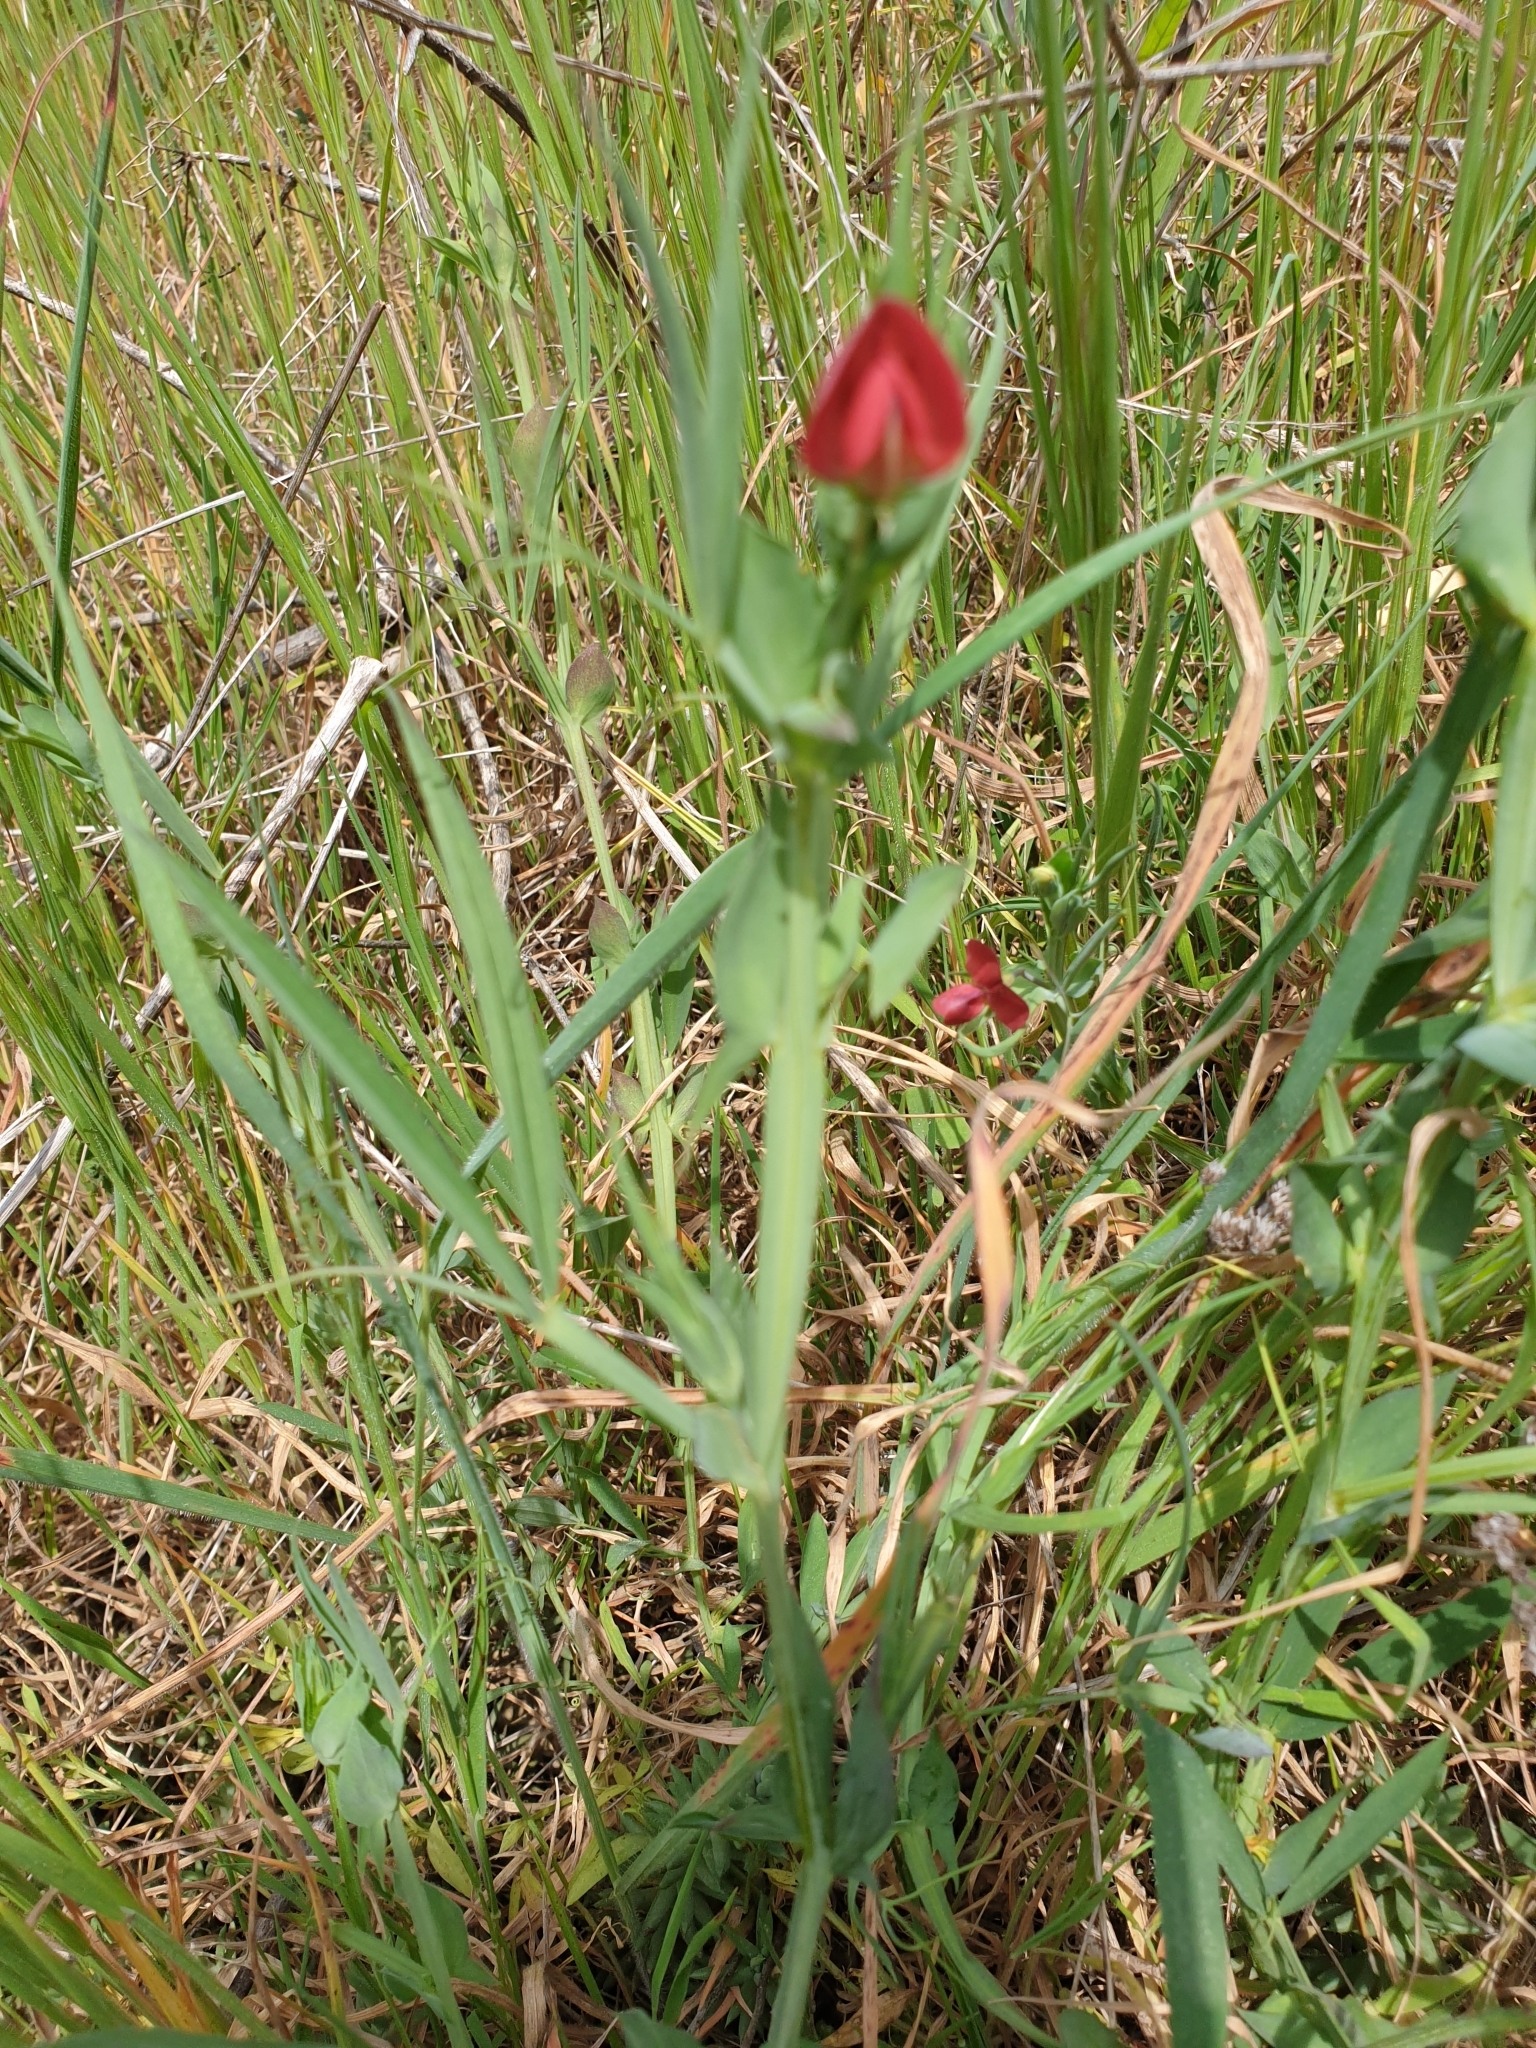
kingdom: Plantae
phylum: Tracheophyta
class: Magnoliopsida
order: Fabales
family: Fabaceae
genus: Lathyrus
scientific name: Lathyrus cicera
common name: Red vetchling
